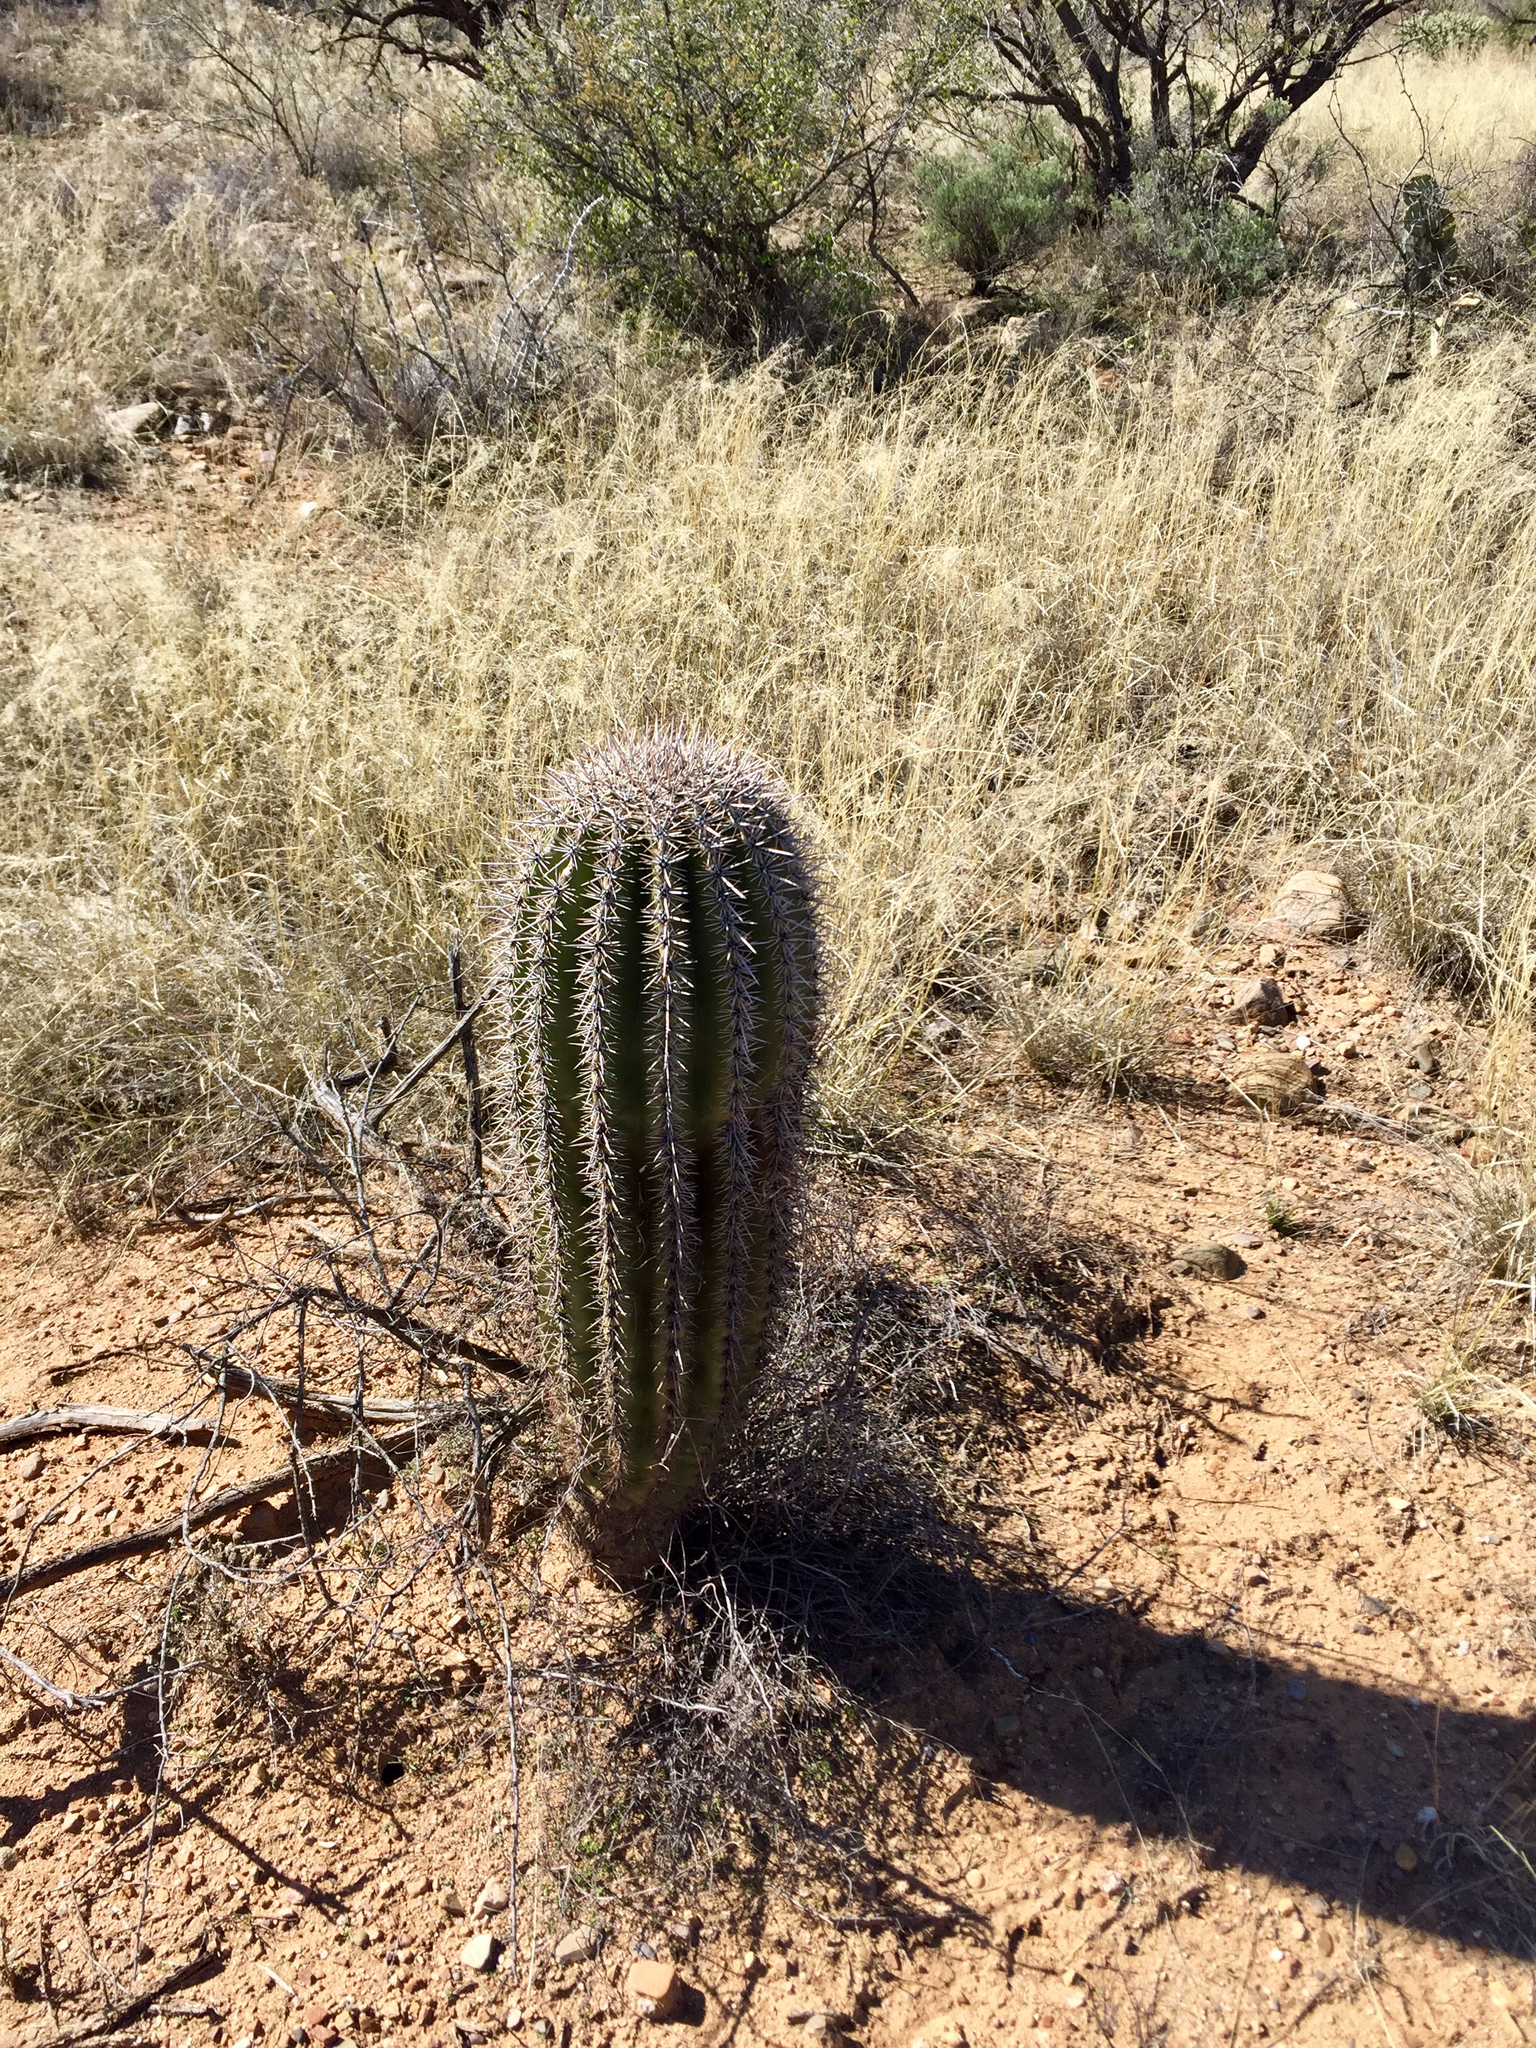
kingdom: Plantae
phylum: Tracheophyta
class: Magnoliopsida
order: Caryophyllales
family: Cactaceae
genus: Carnegiea
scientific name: Carnegiea gigantea
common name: Saguaro
